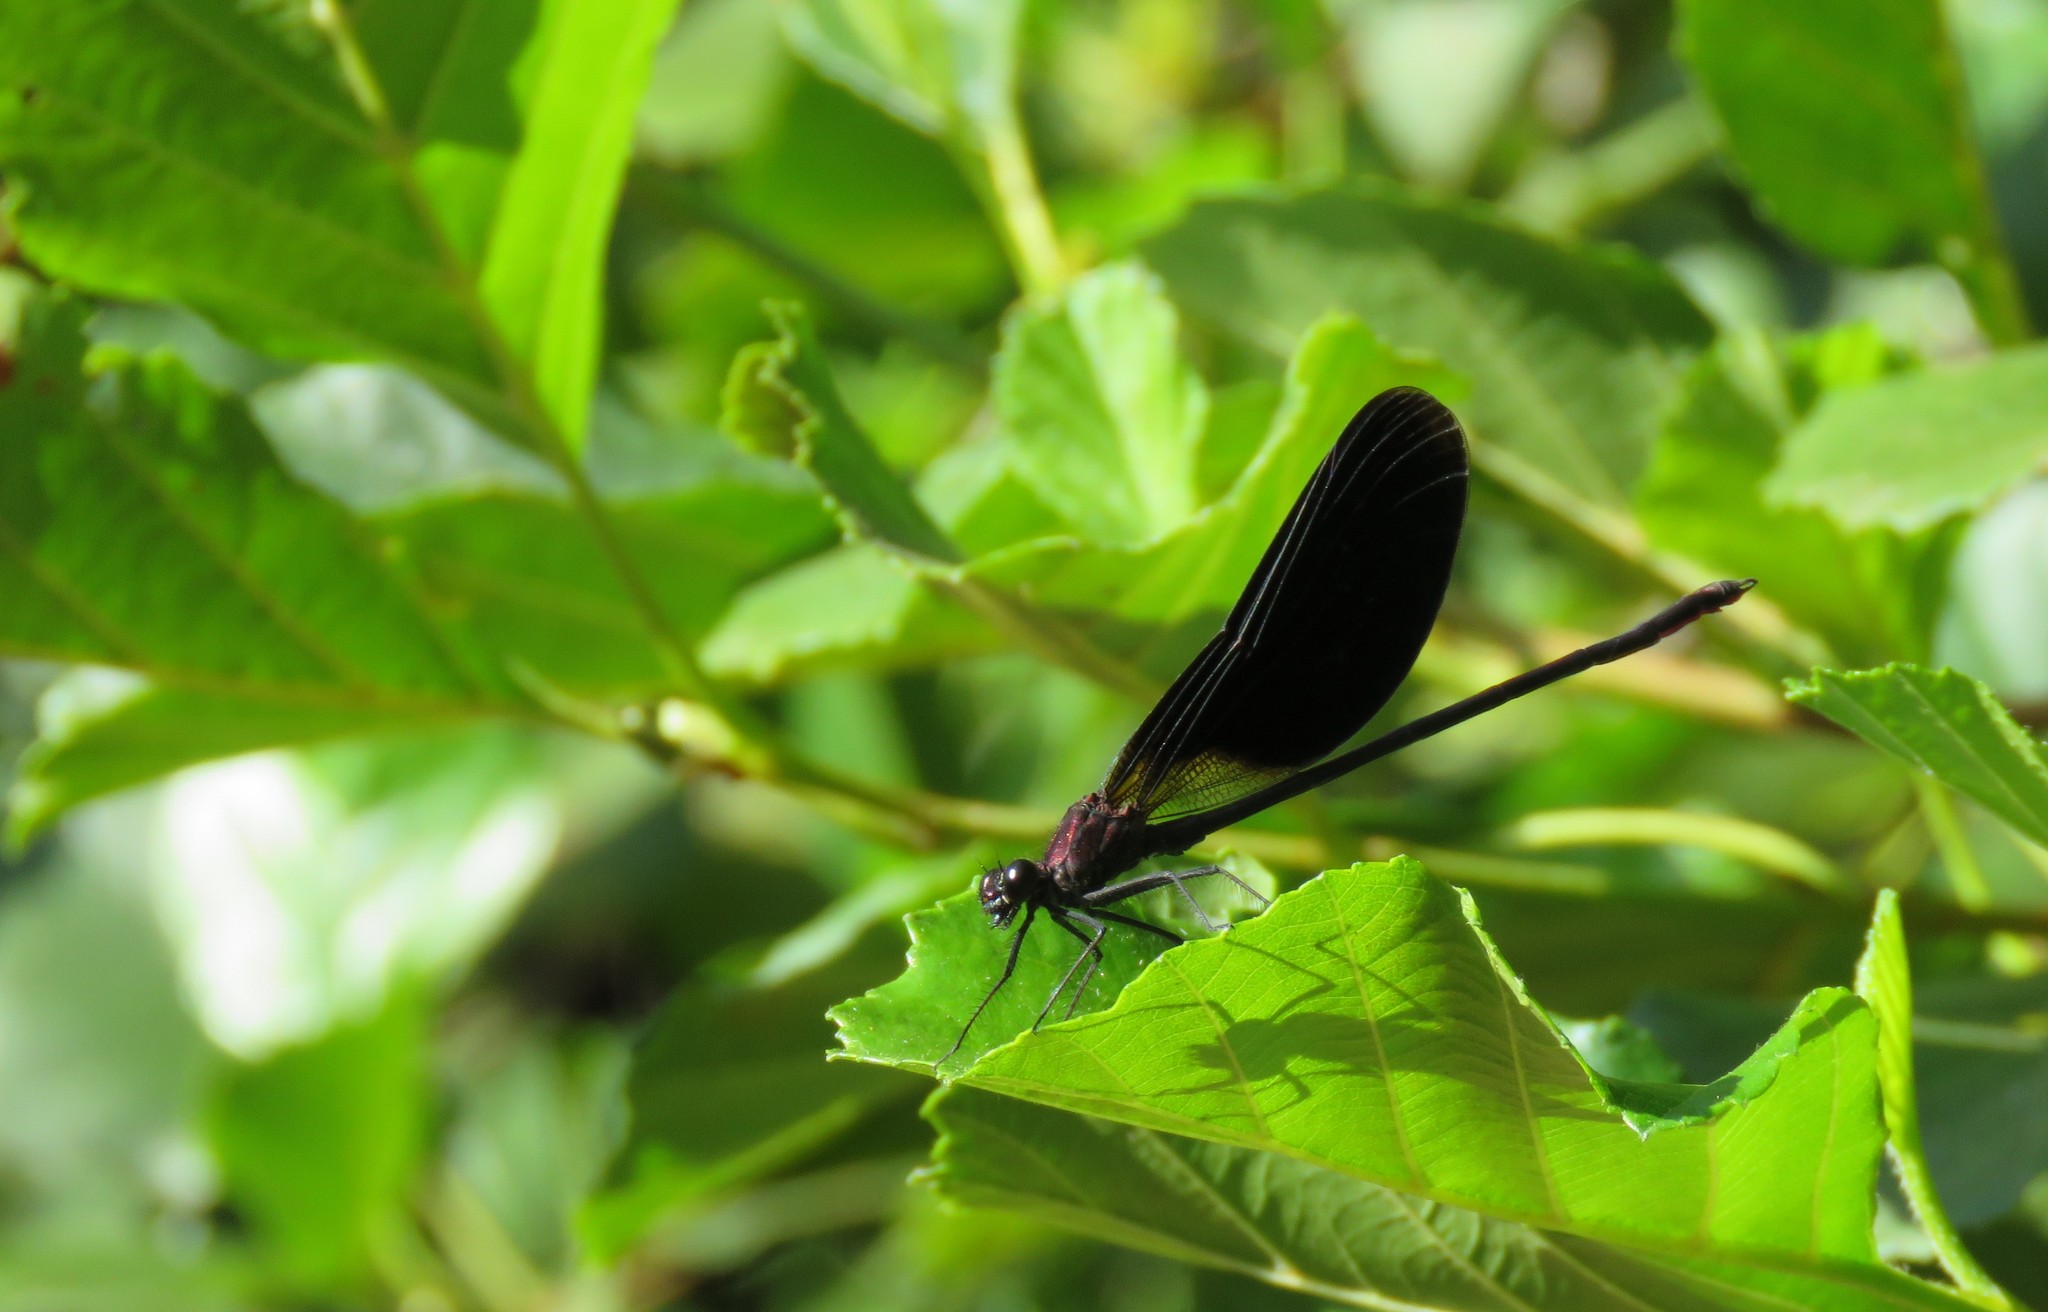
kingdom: Animalia
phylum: Arthropoda
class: Insecta
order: Odonata
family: Calopterygidae
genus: Calopteryx
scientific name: Calopteryx haemorrhoidalis
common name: Copper demoiselle
